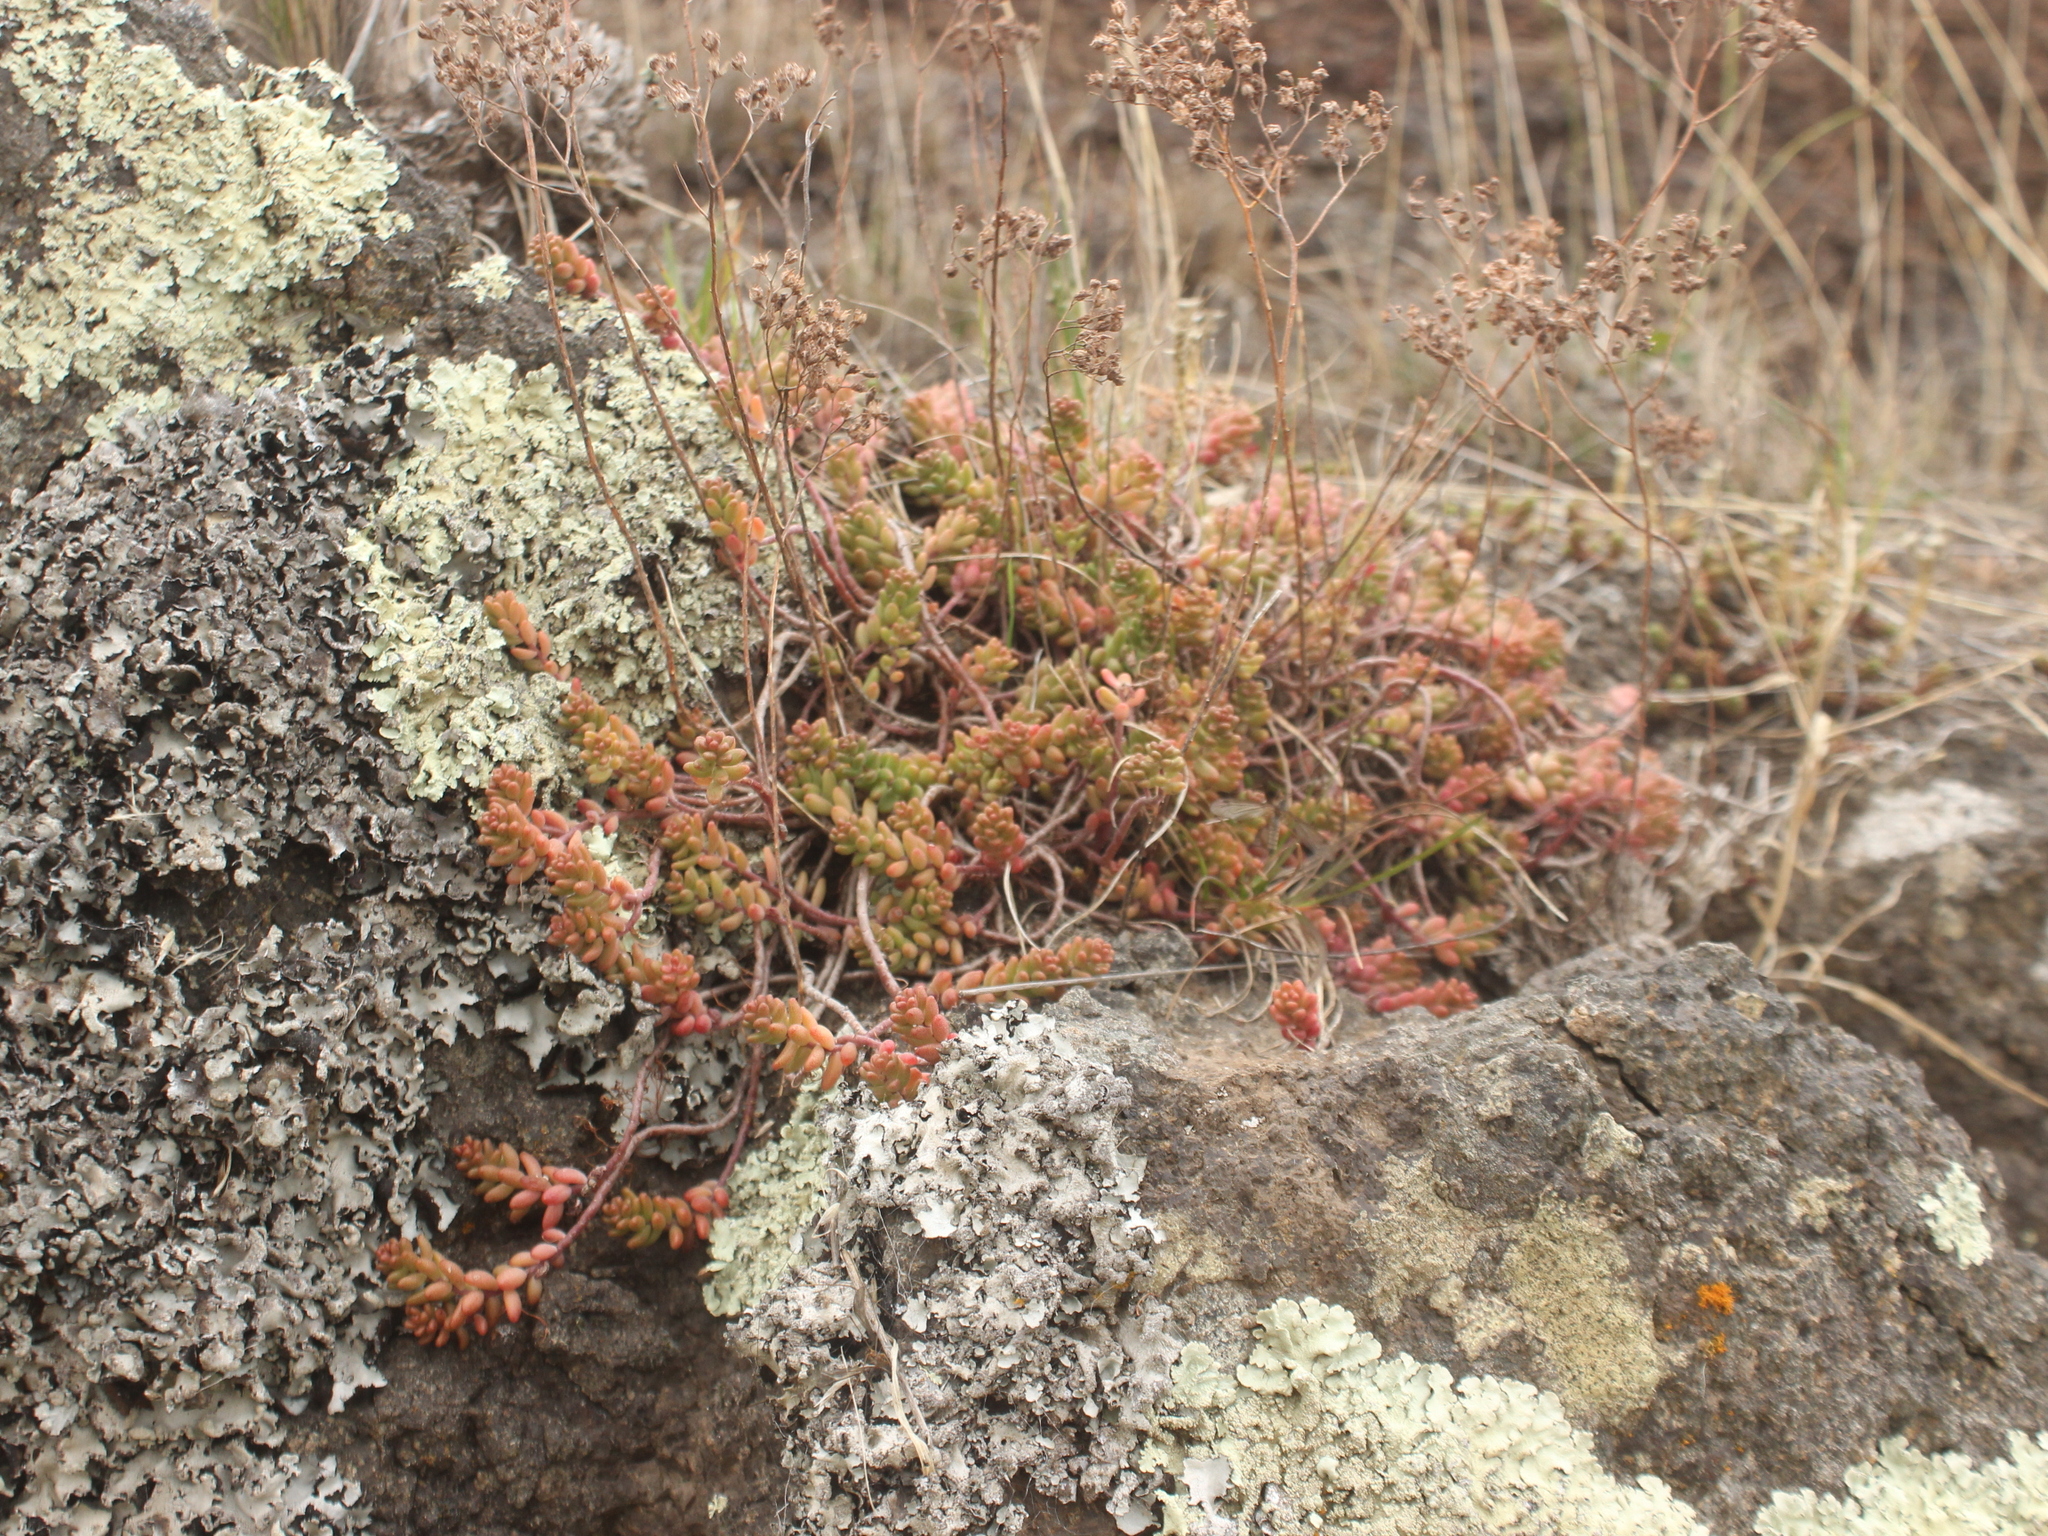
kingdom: Plantae
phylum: Tracheophyta
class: Magnoliopsida
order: Saxifragales
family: Crassulaceae
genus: Sedum
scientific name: Sedum album
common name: White stonecrop
